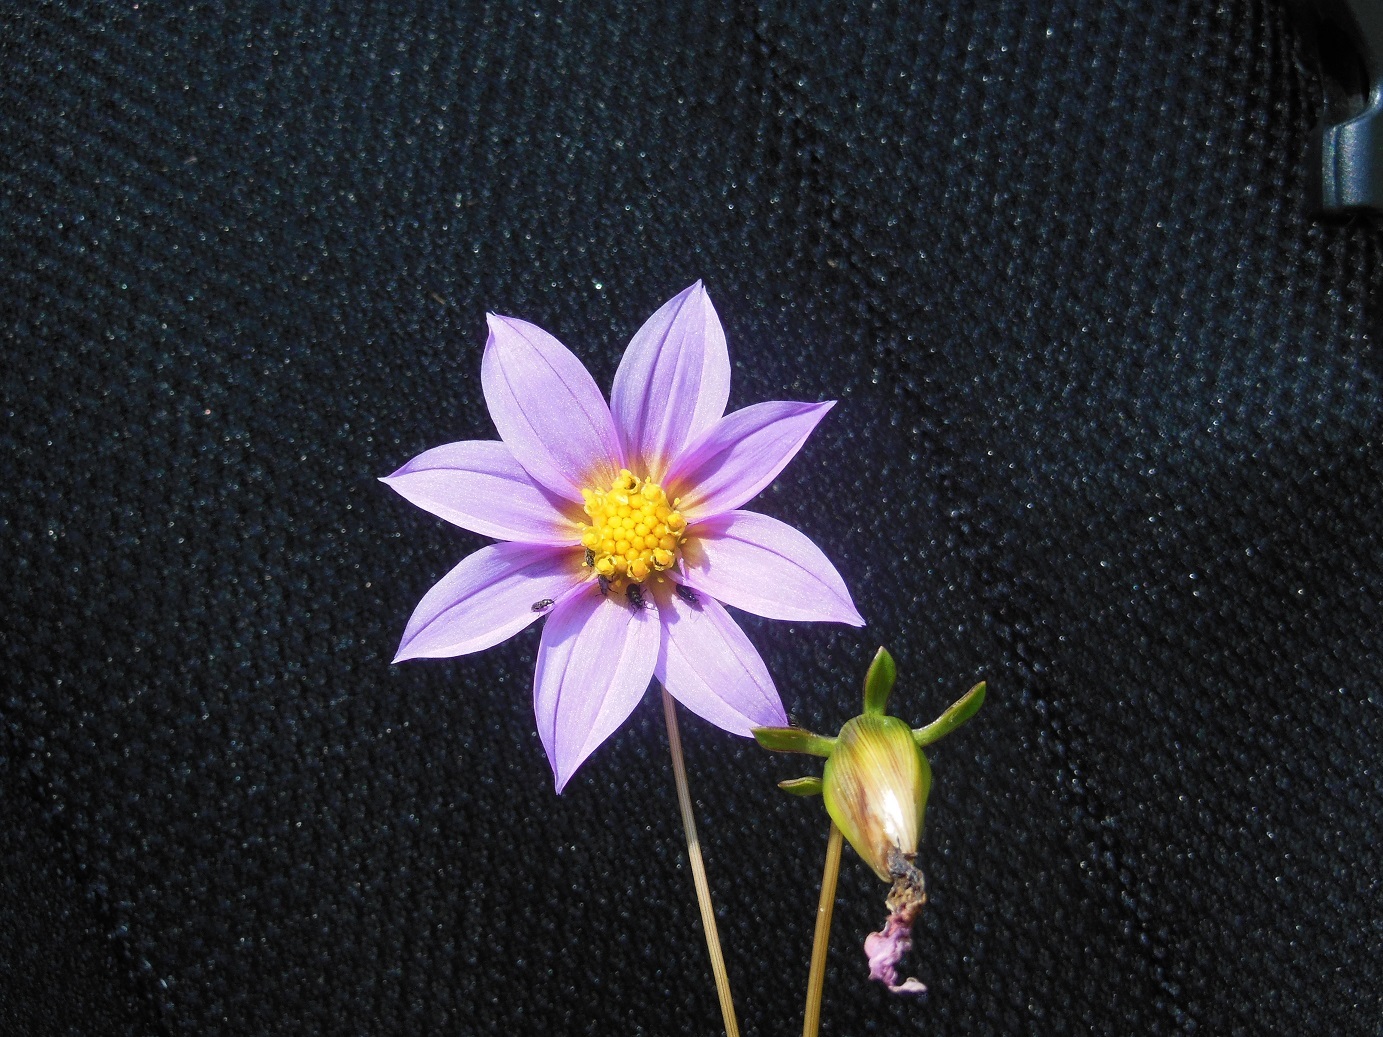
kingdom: Plantae
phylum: Tracheophyta
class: Magnoliopsida
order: Asterales
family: Asteraceae
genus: Dahlia
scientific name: Dahlia australis
